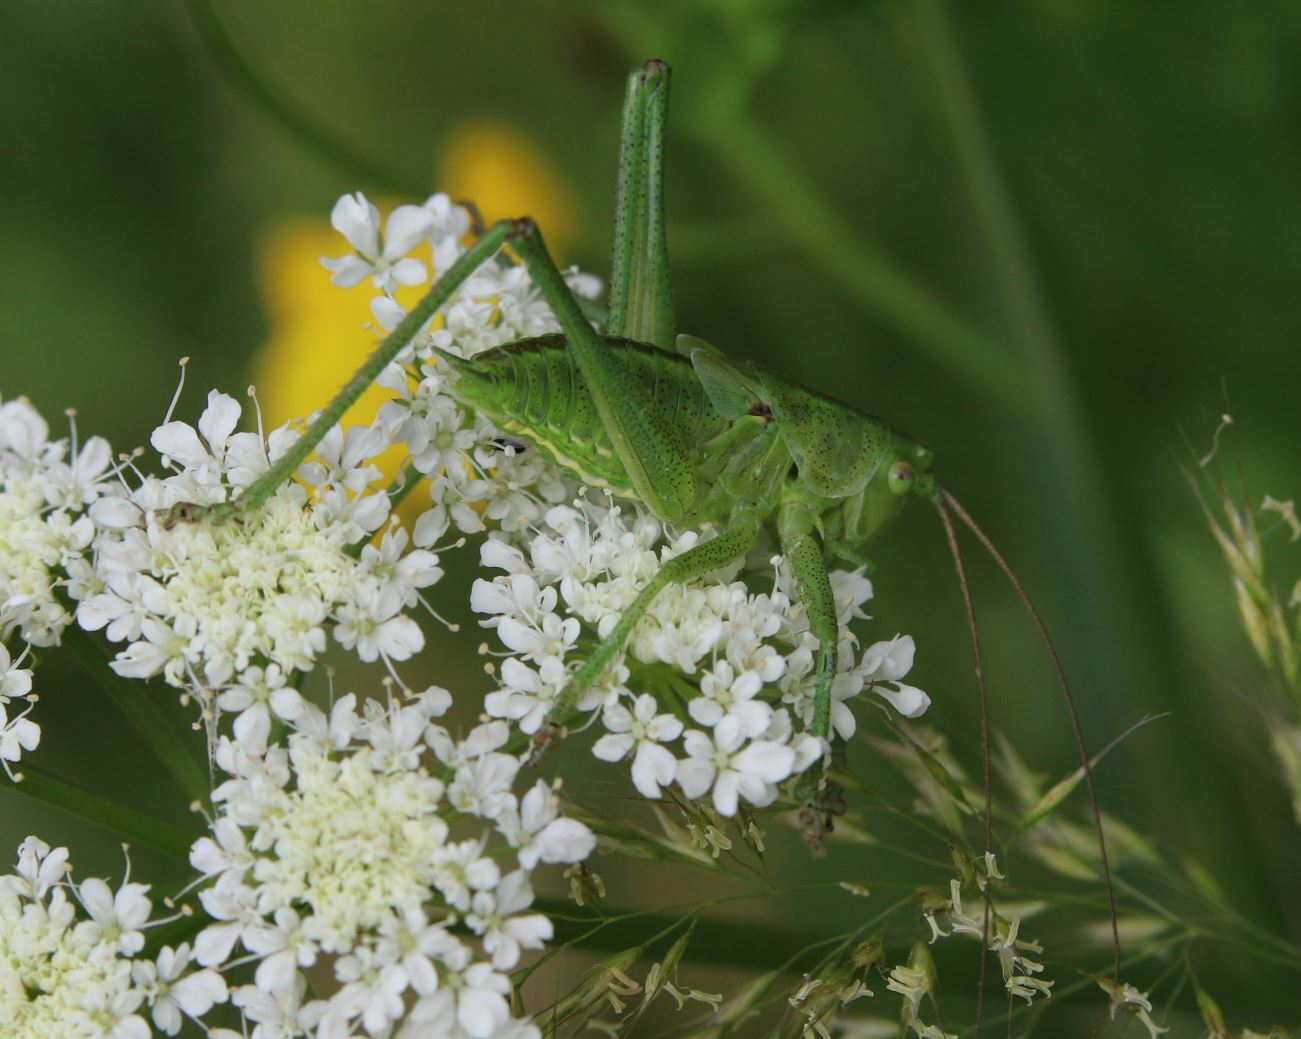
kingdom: Animalia
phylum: Arthropoda
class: Insecta
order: Orthoptera
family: Tettigoniidae
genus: Tettigonia
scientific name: Tettigonia viridissima
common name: Great green bush-cricket
